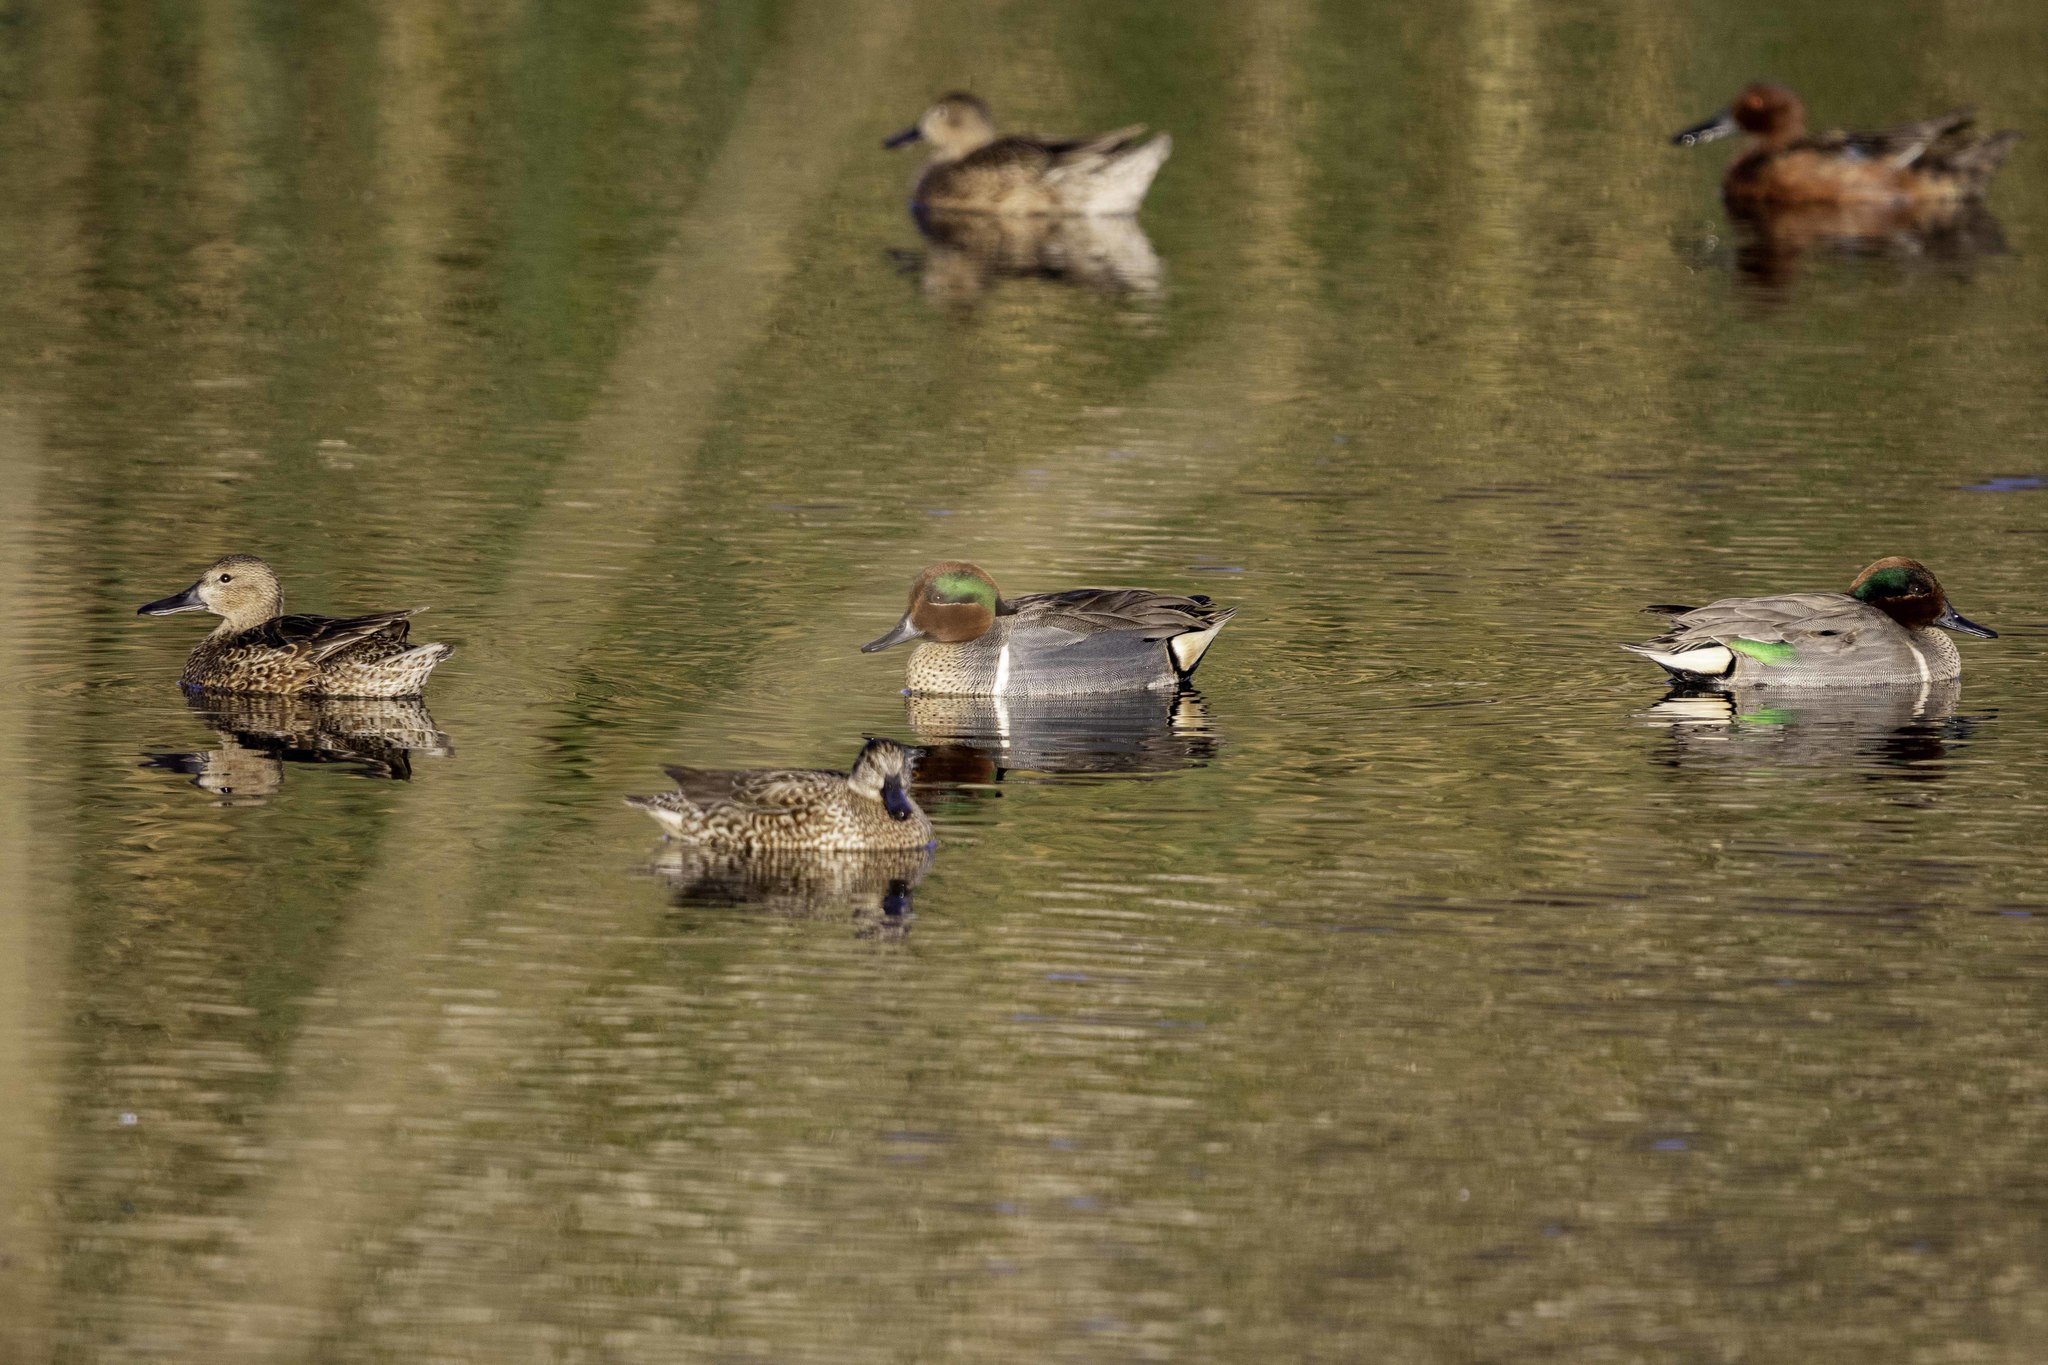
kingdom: Animalia
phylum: Chordata
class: Aves
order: Anseriformes
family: Anatidae
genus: Anas
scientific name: Anas crecca
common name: Eurasian teal
